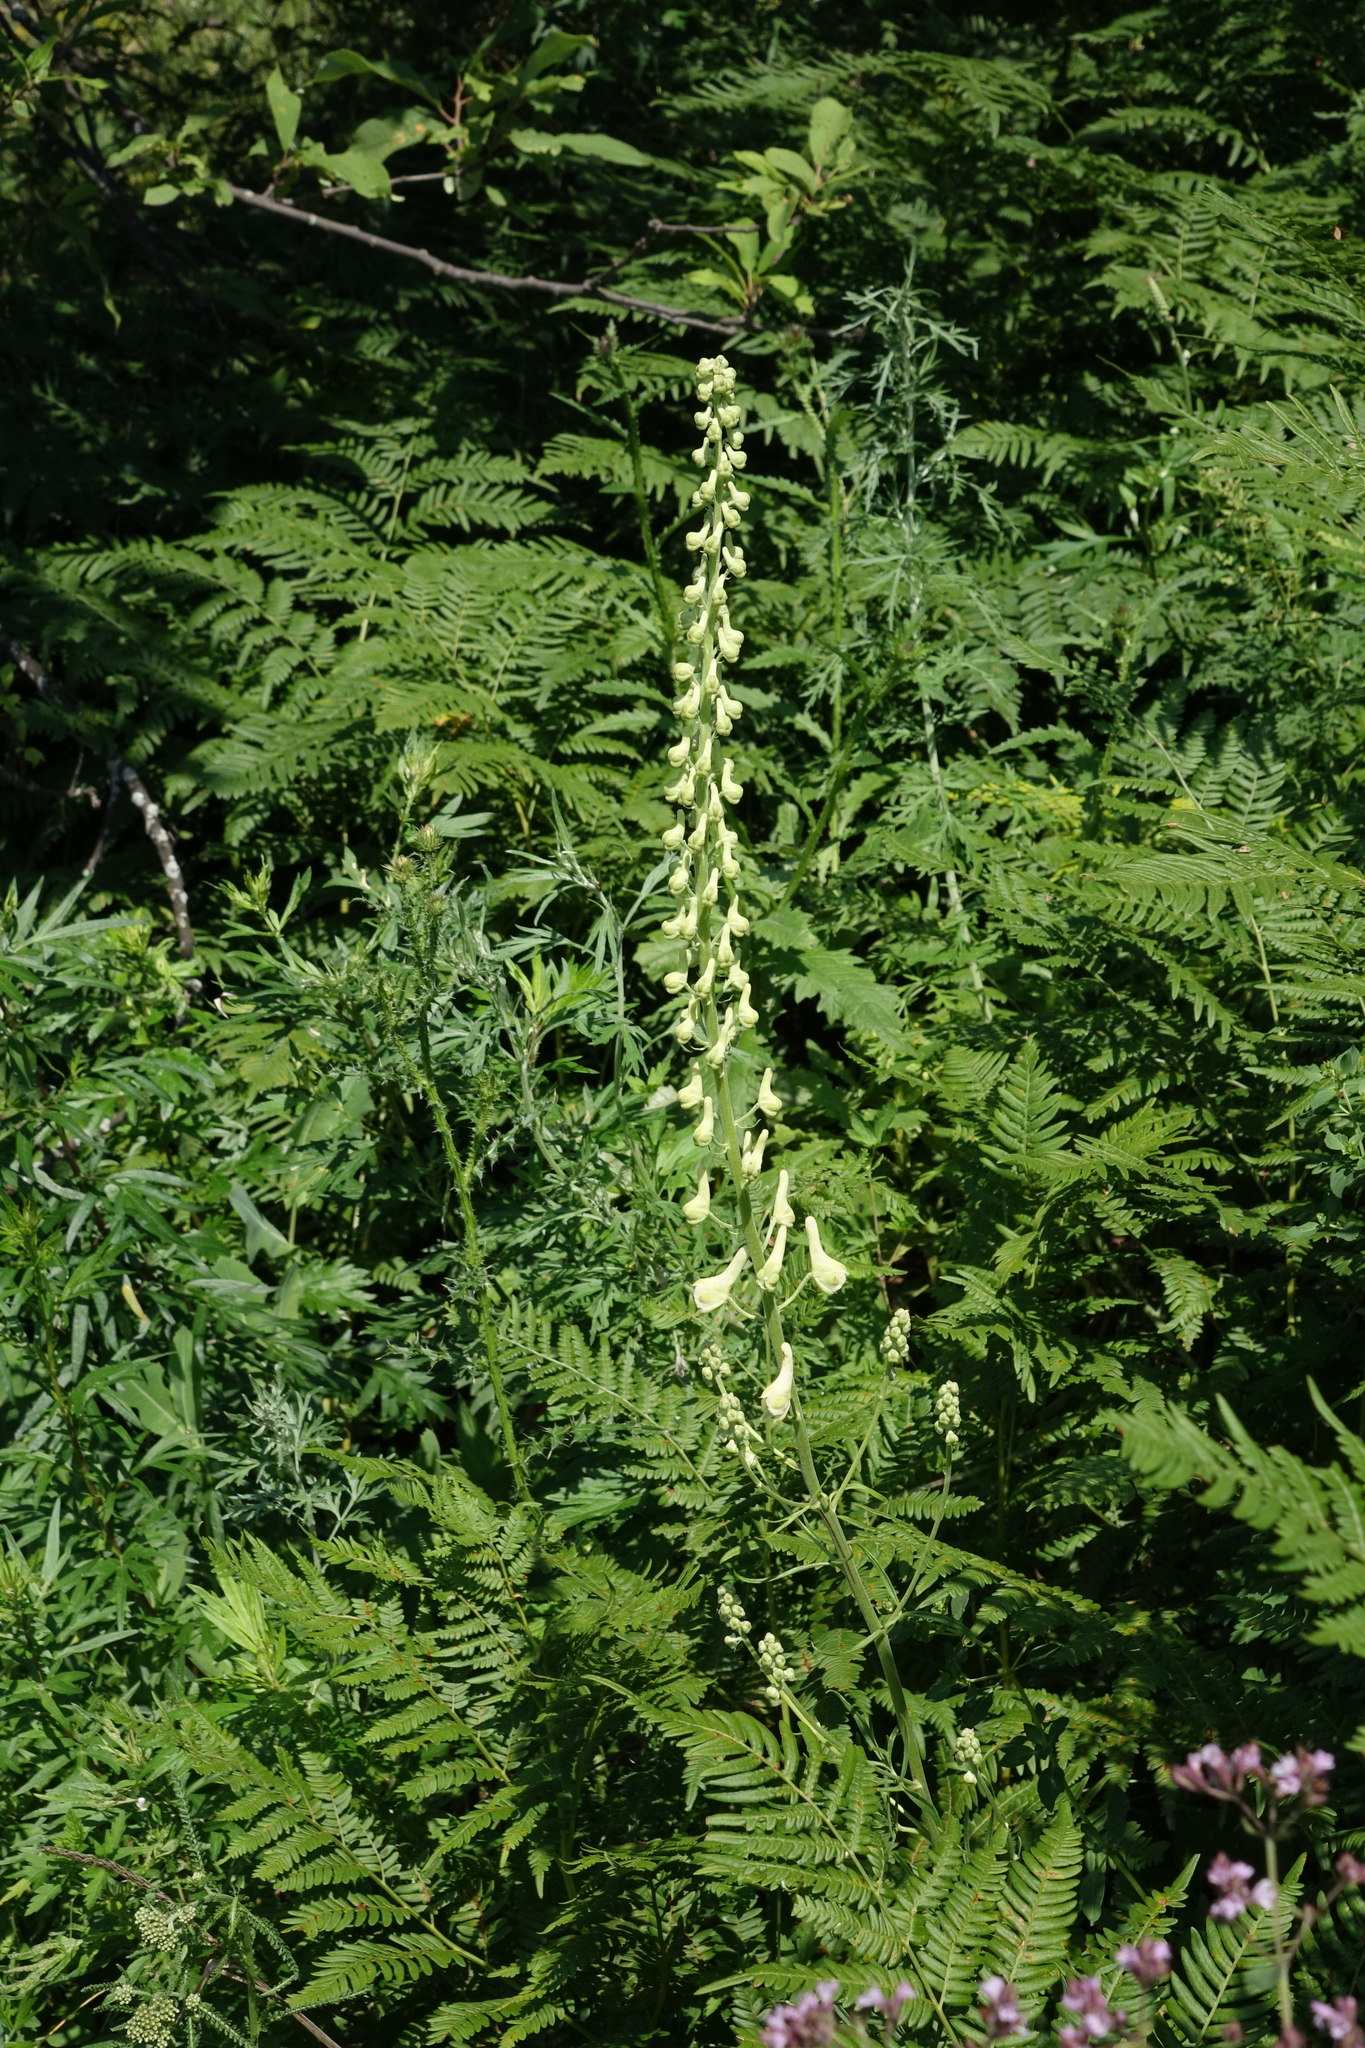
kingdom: Plantae
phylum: Tracheophyta
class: Magnoliopsida
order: Ranunculales
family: Ranunculaceae
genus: Aconitum
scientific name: Aconitum barbatum
